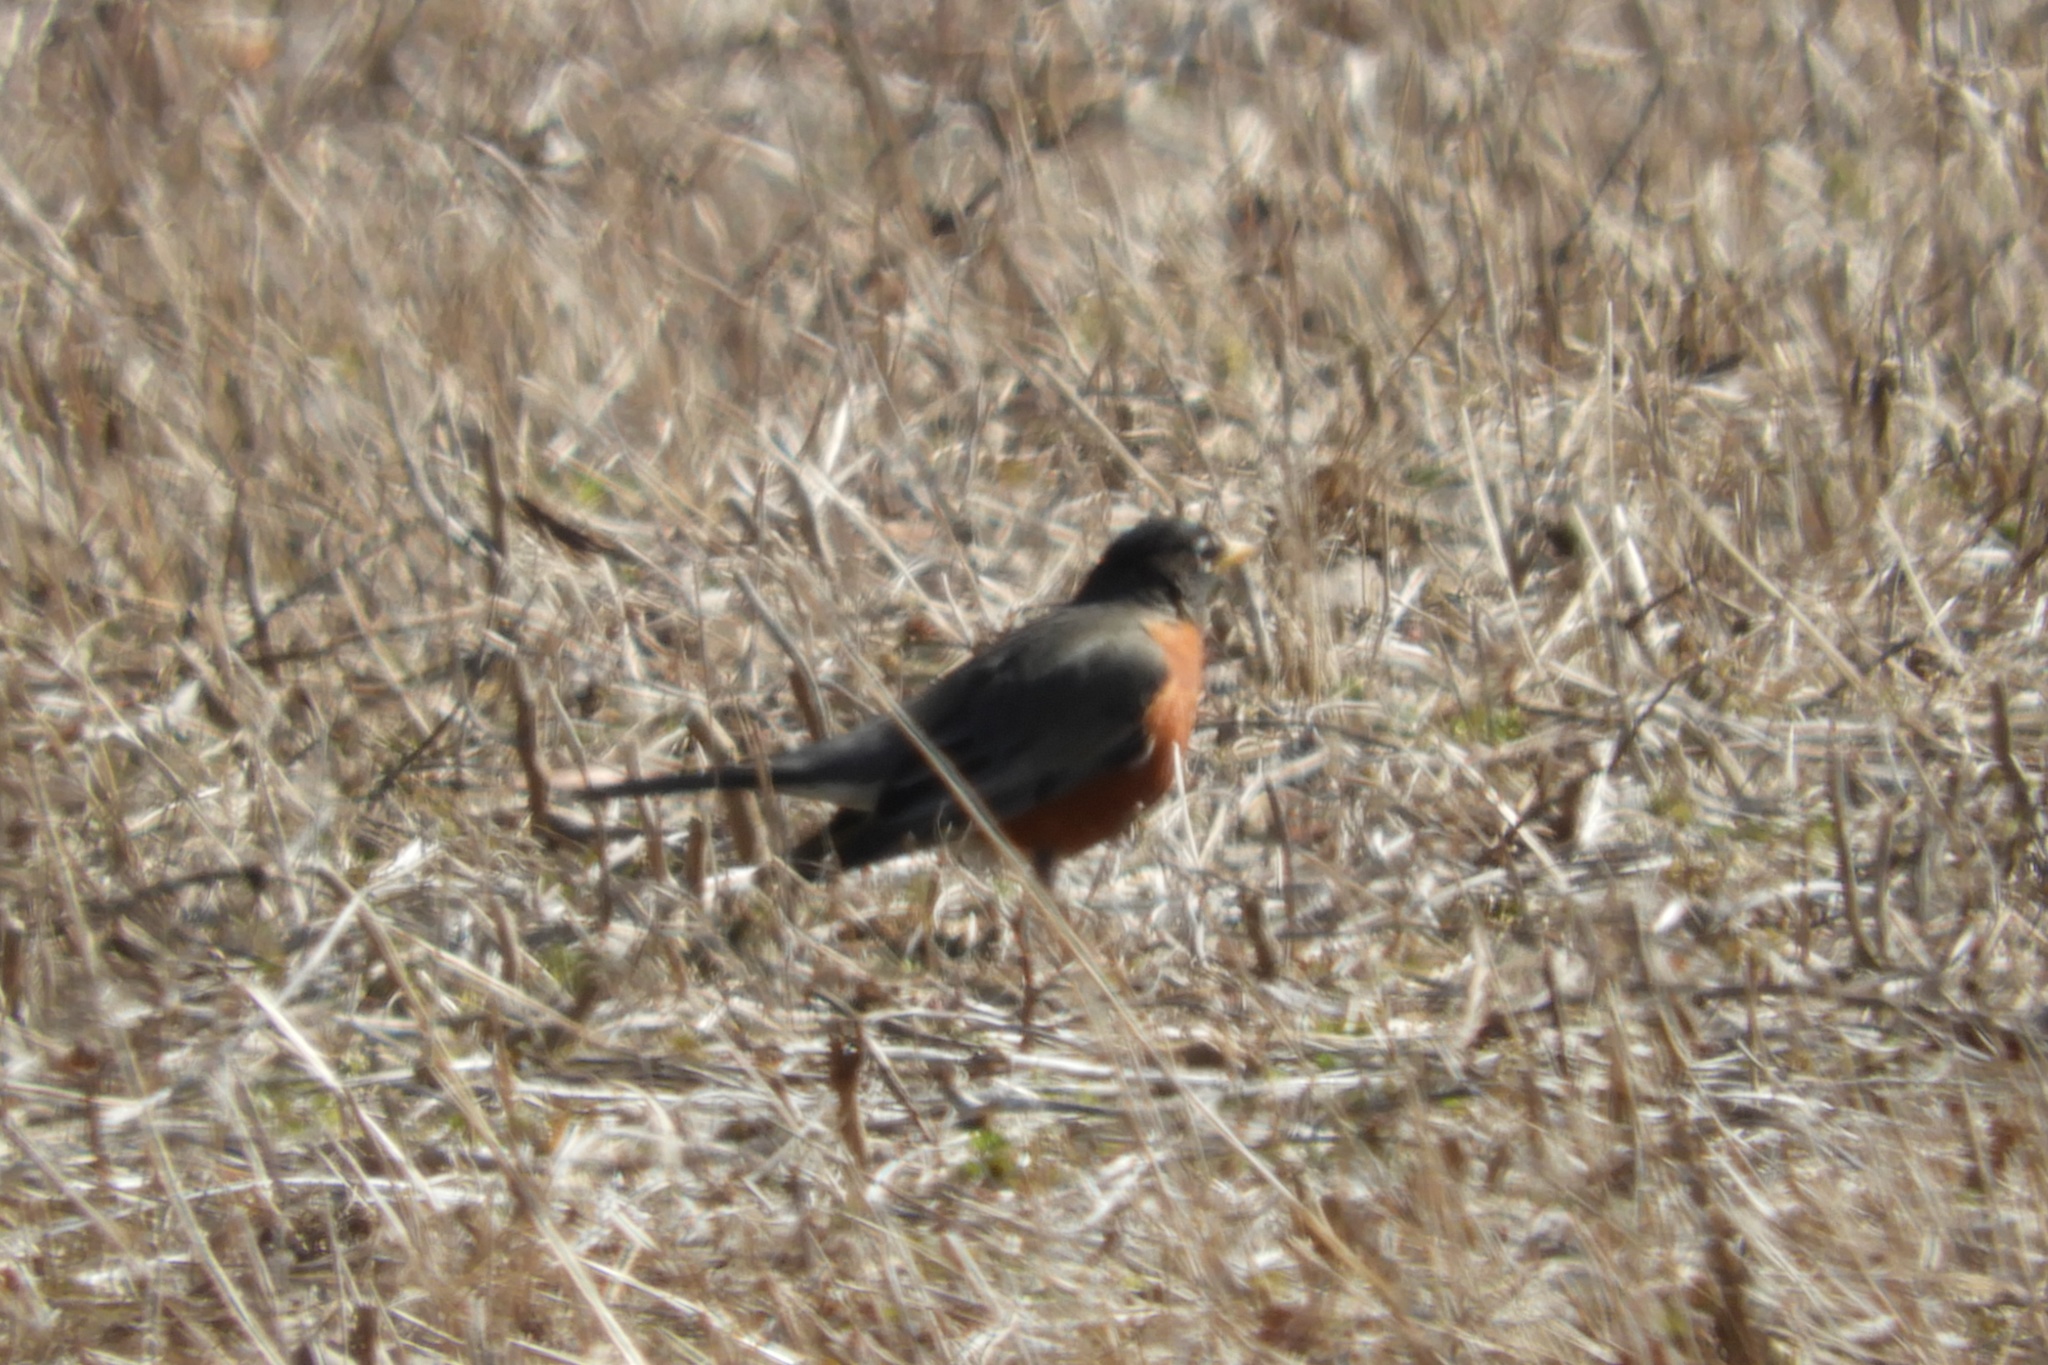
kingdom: Animalia
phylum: Chordata
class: Aves
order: Passeriformes
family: Turdidae
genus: Turdus
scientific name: Turdus migratorius
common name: American robin
